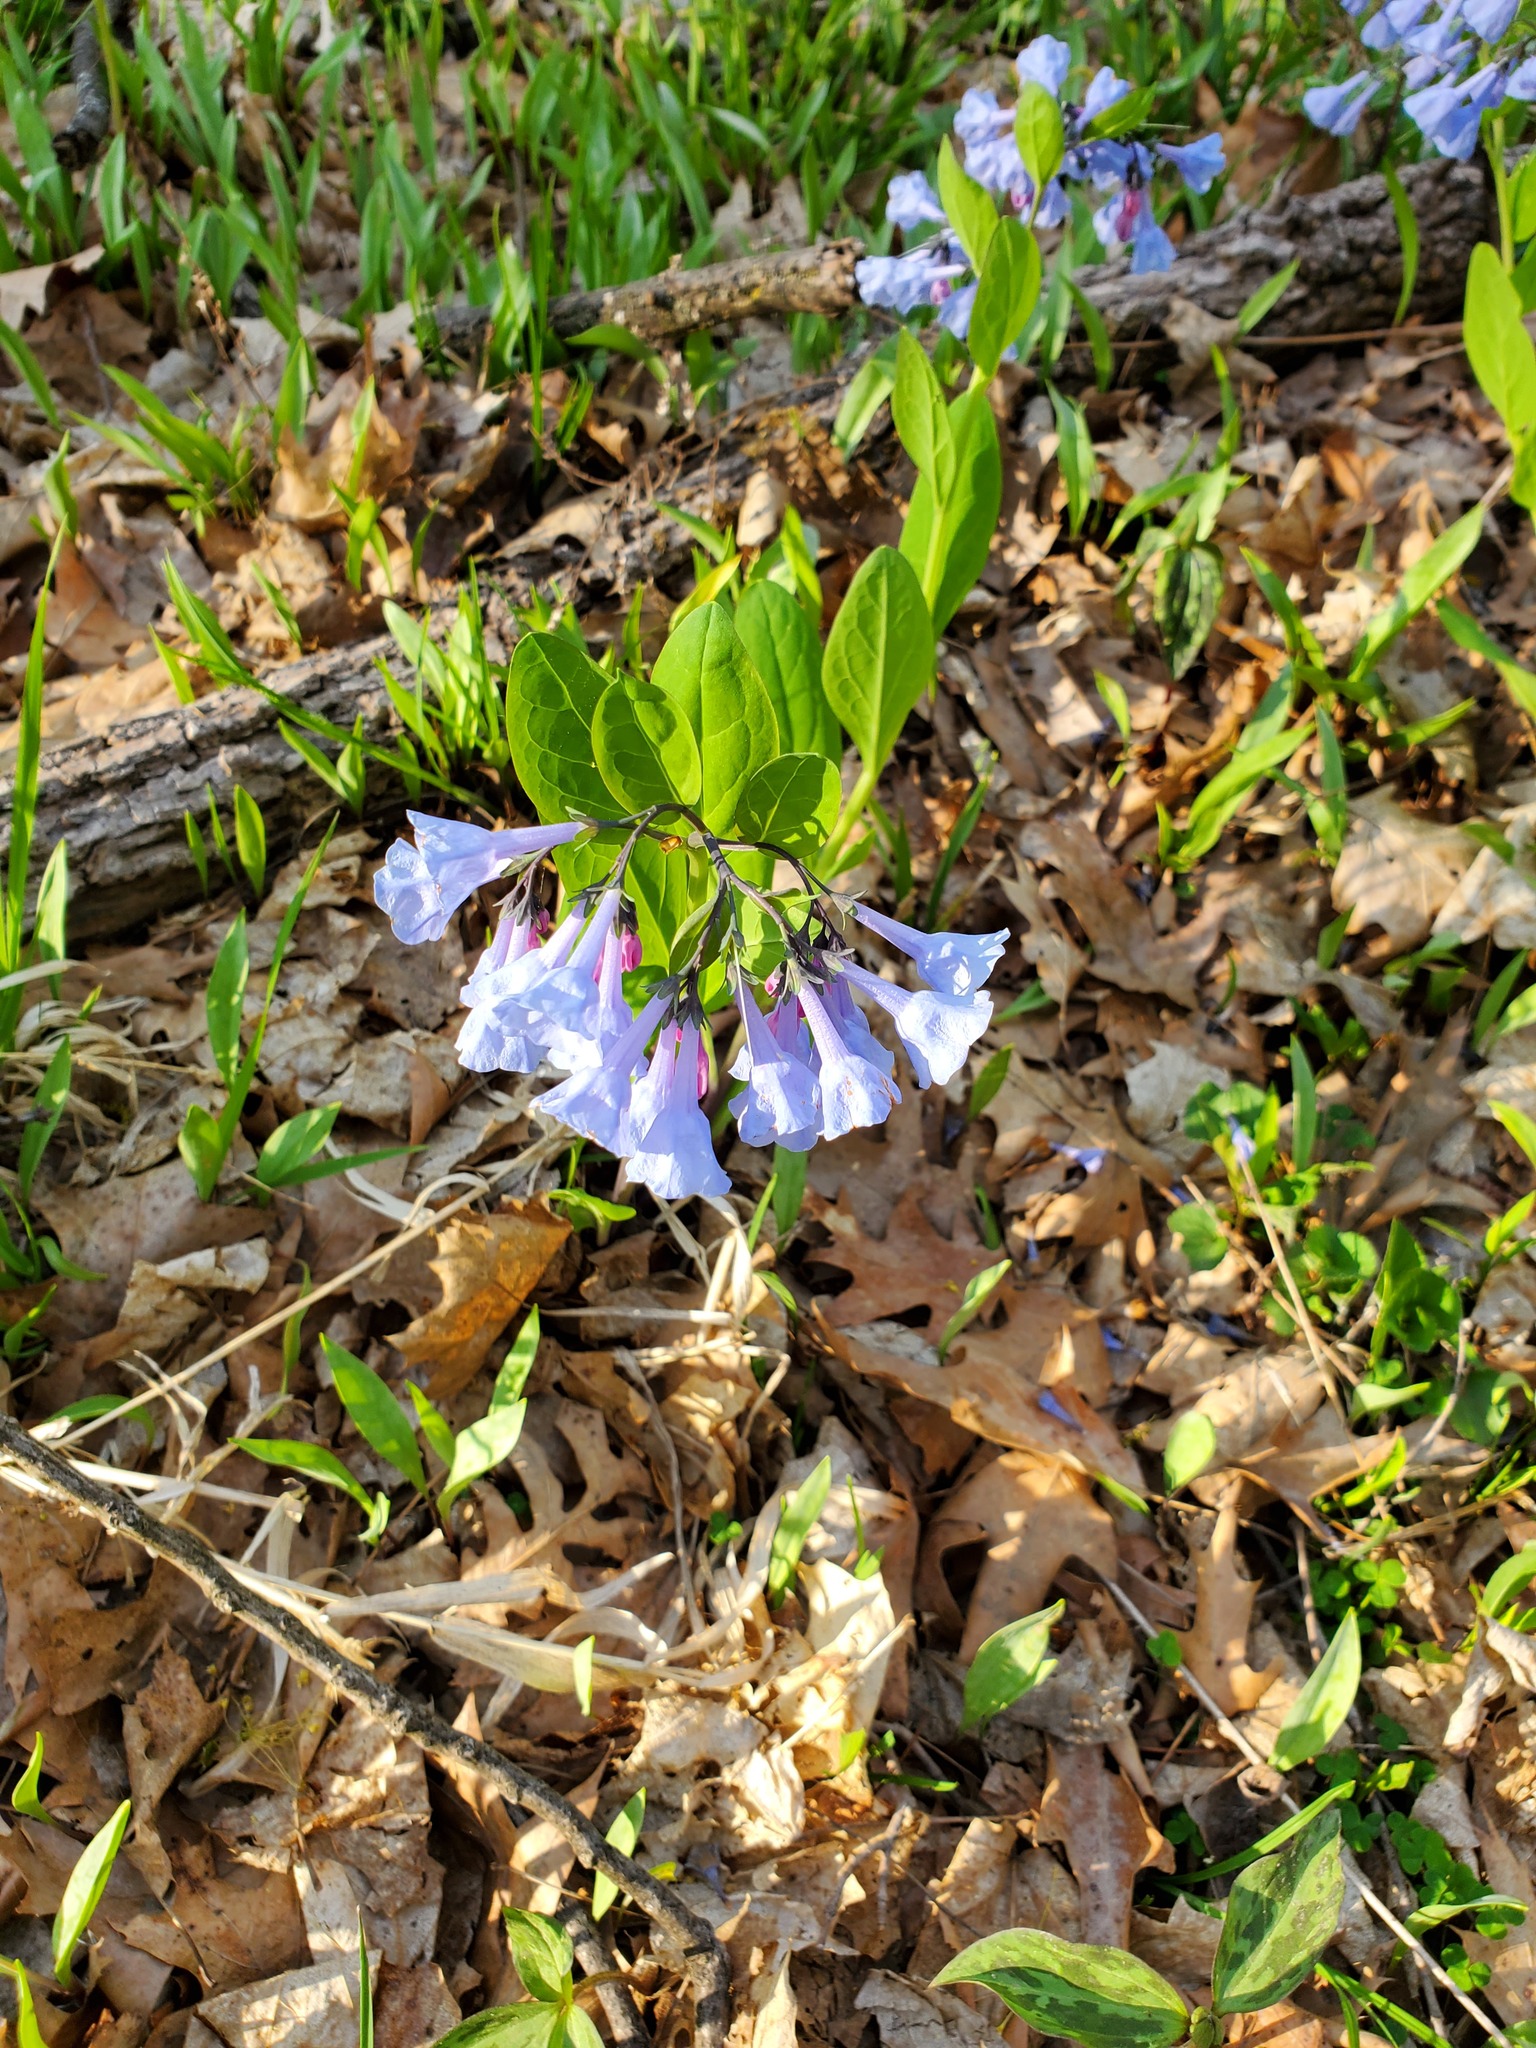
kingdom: Plantae
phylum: Tracheophyta
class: Magnoliopsida
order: Boraginales
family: Boraginaceae
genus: Mertensia
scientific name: Mertensia virginica
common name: Virginia bluebells
